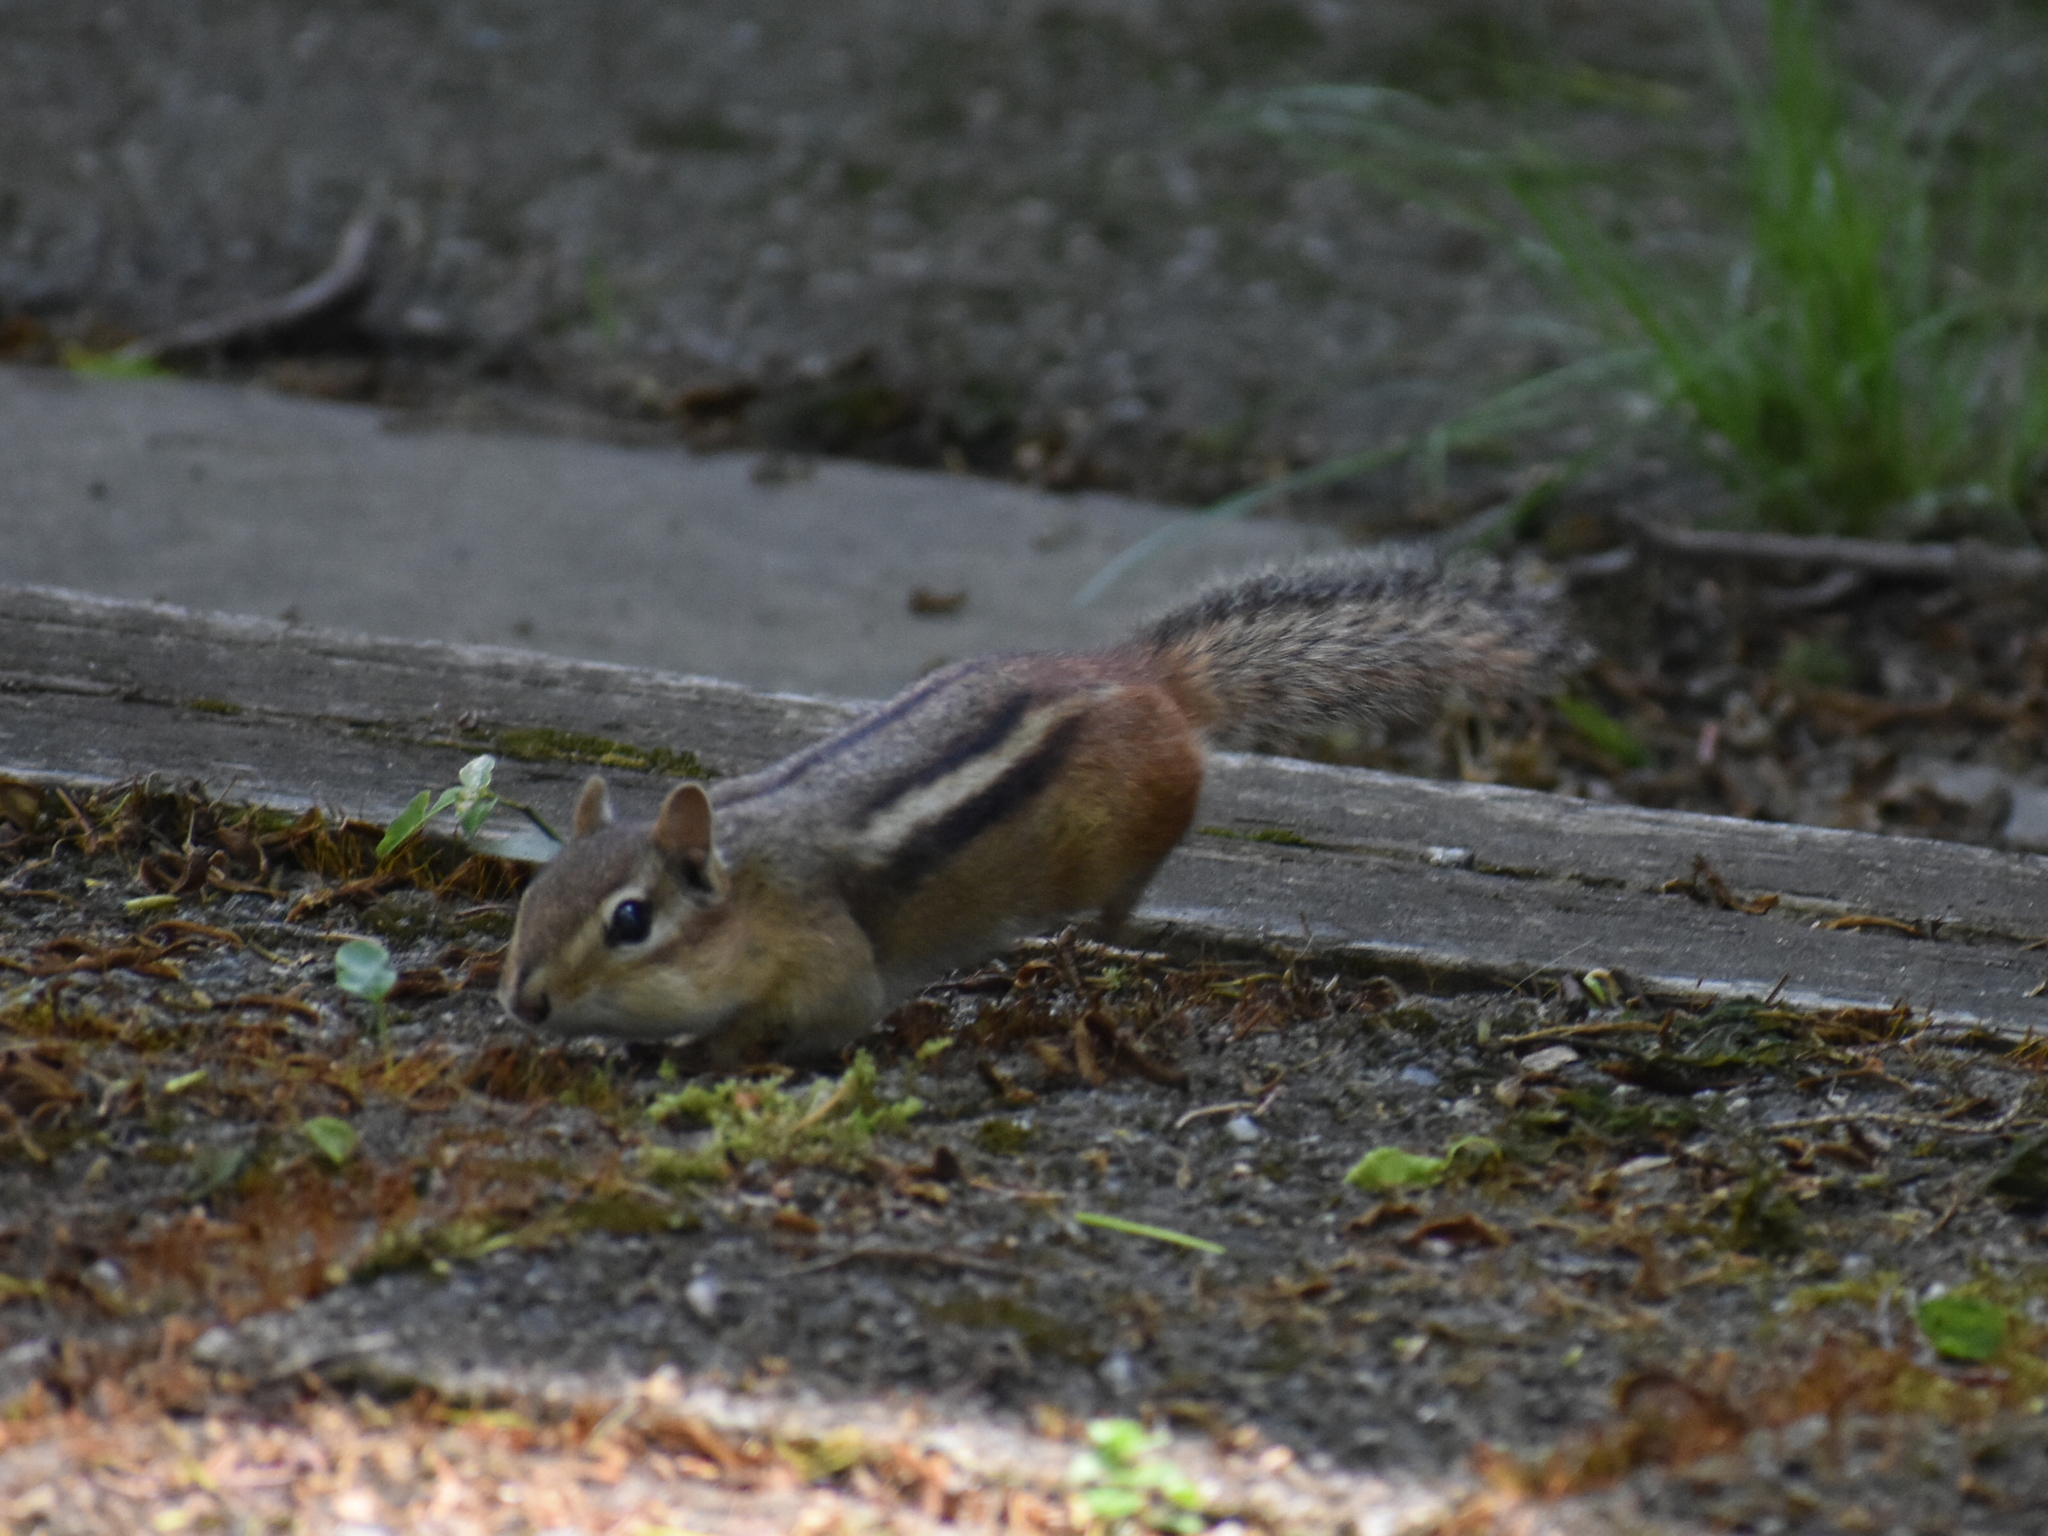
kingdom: Animalia
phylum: Chordata
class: Mammalia
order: Rodentia
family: Sciuridae
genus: Tamias
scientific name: Tamias striatus
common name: Eastern chipmunk
